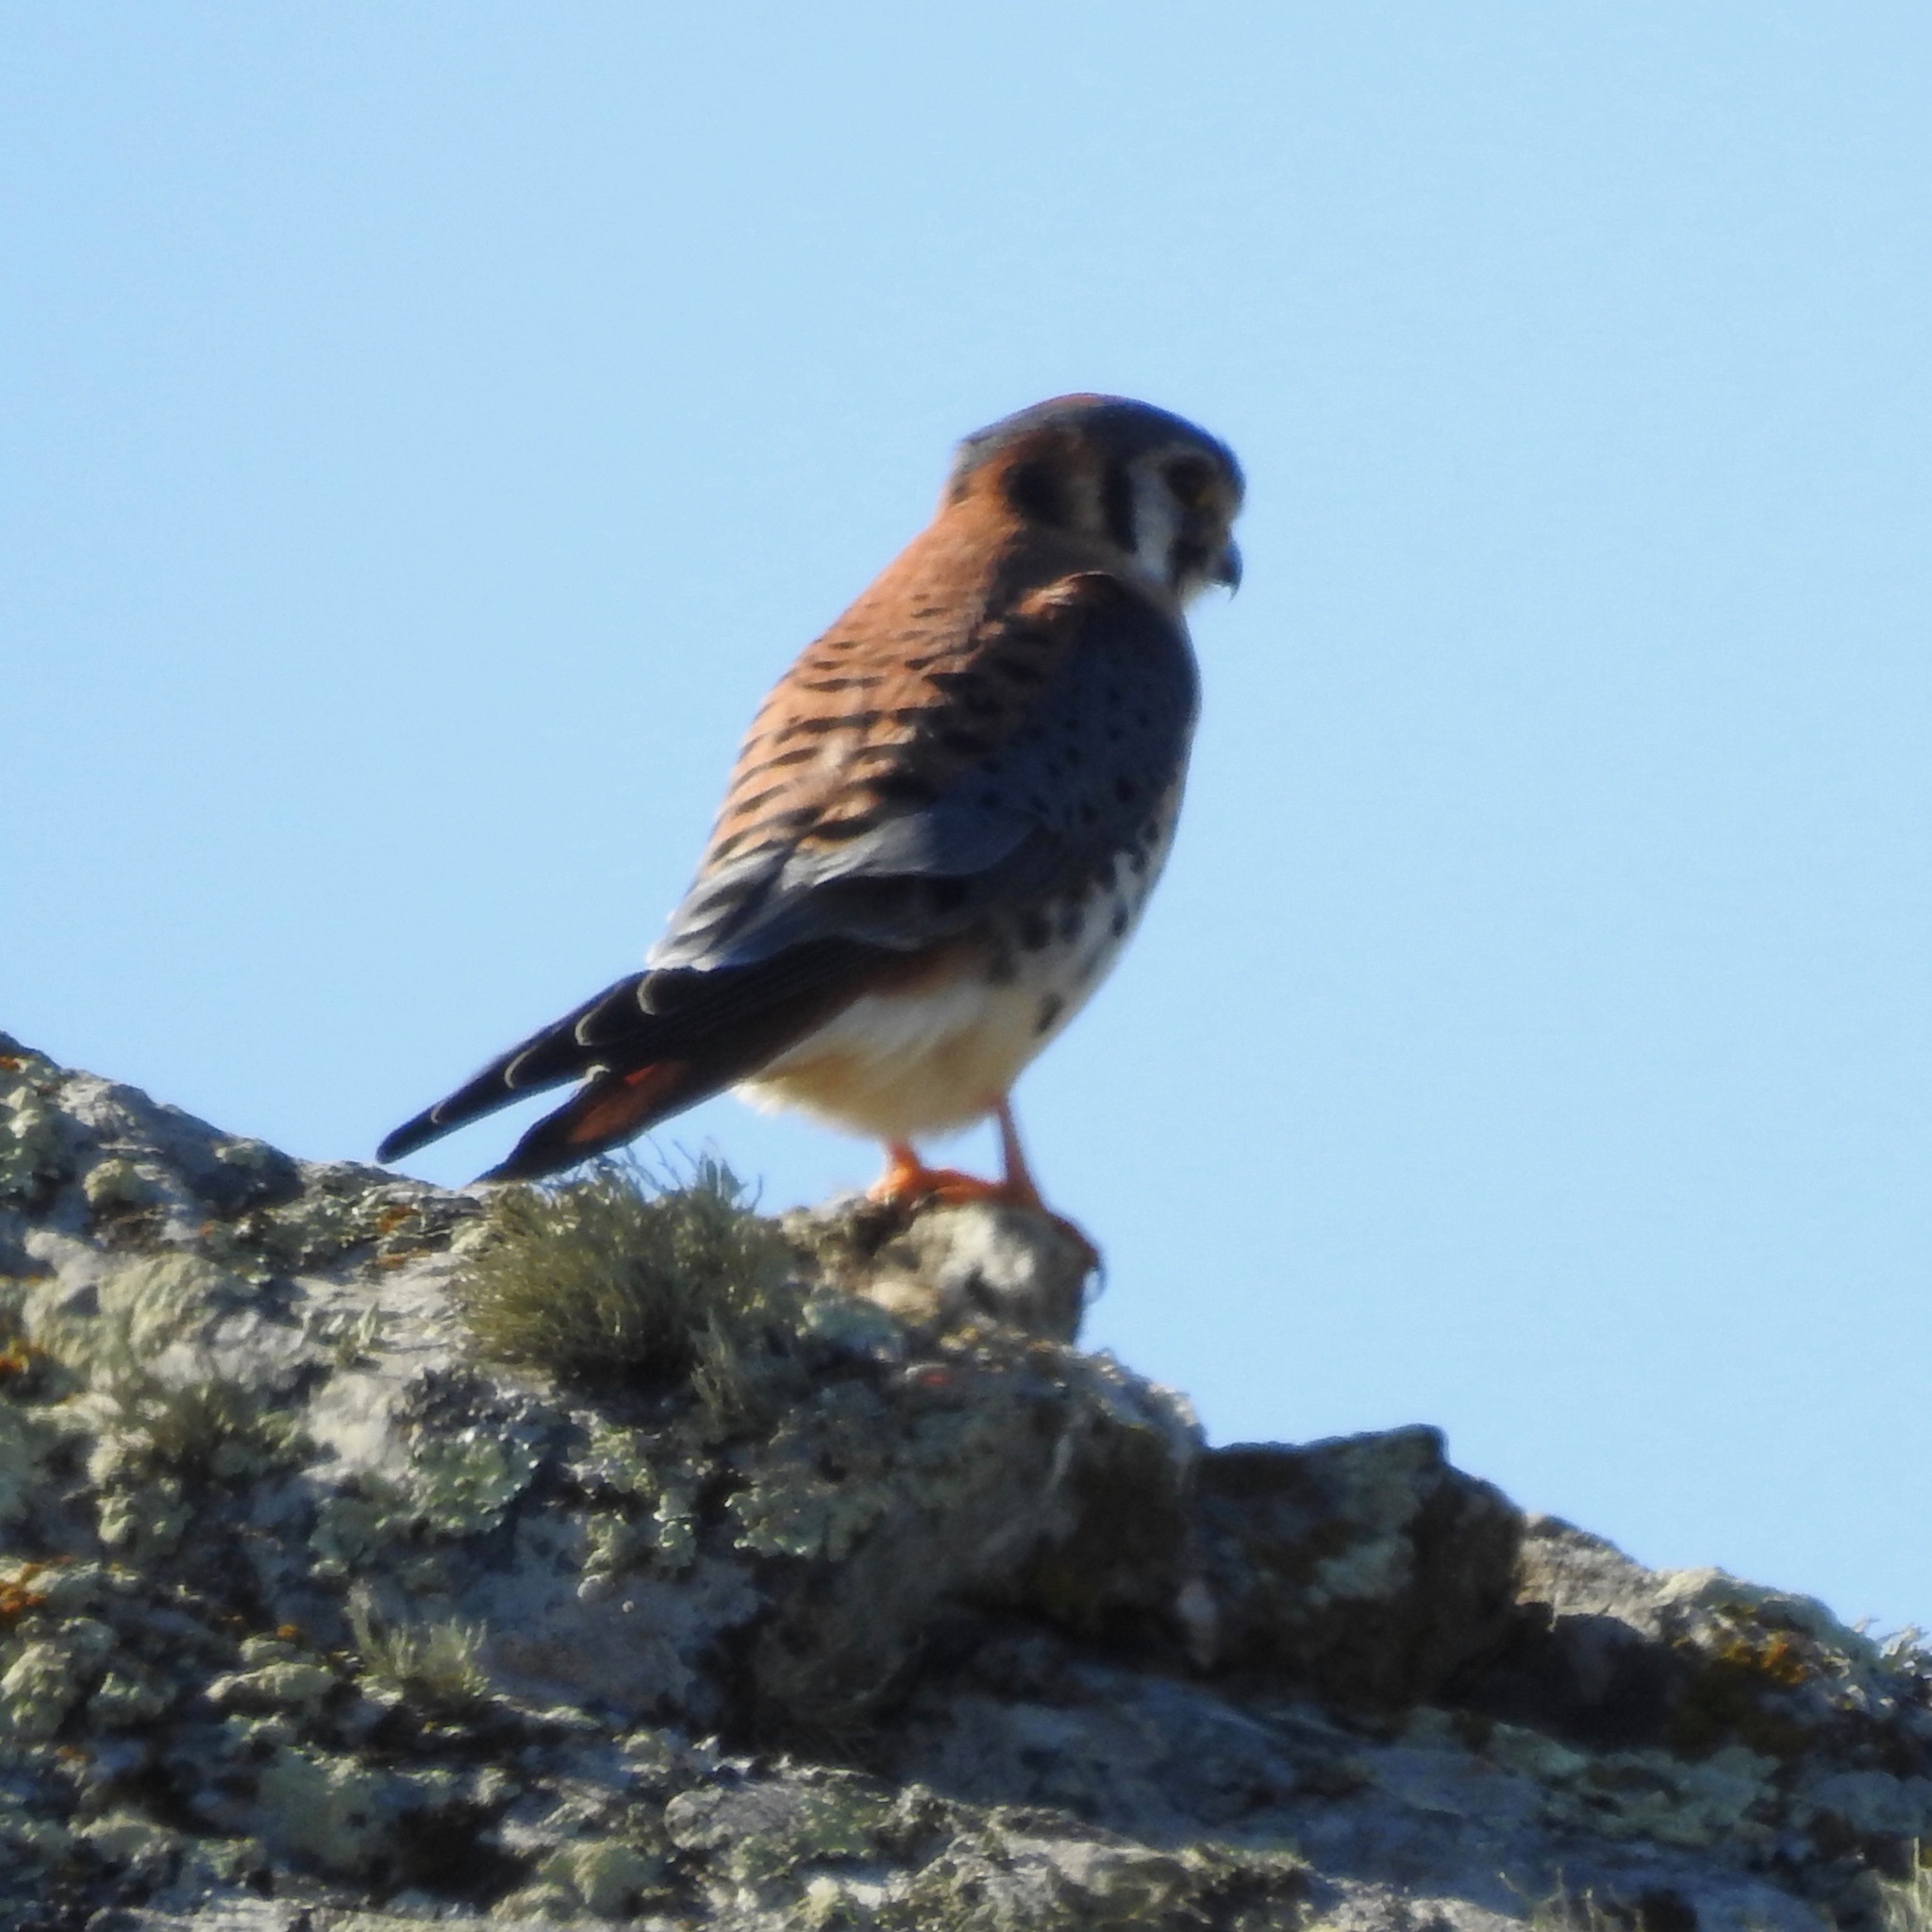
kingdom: Animalia
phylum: Chordata
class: Aves
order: Falconiformes
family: Falconidae
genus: Falco
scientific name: Falco sparverius
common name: American kestrel
